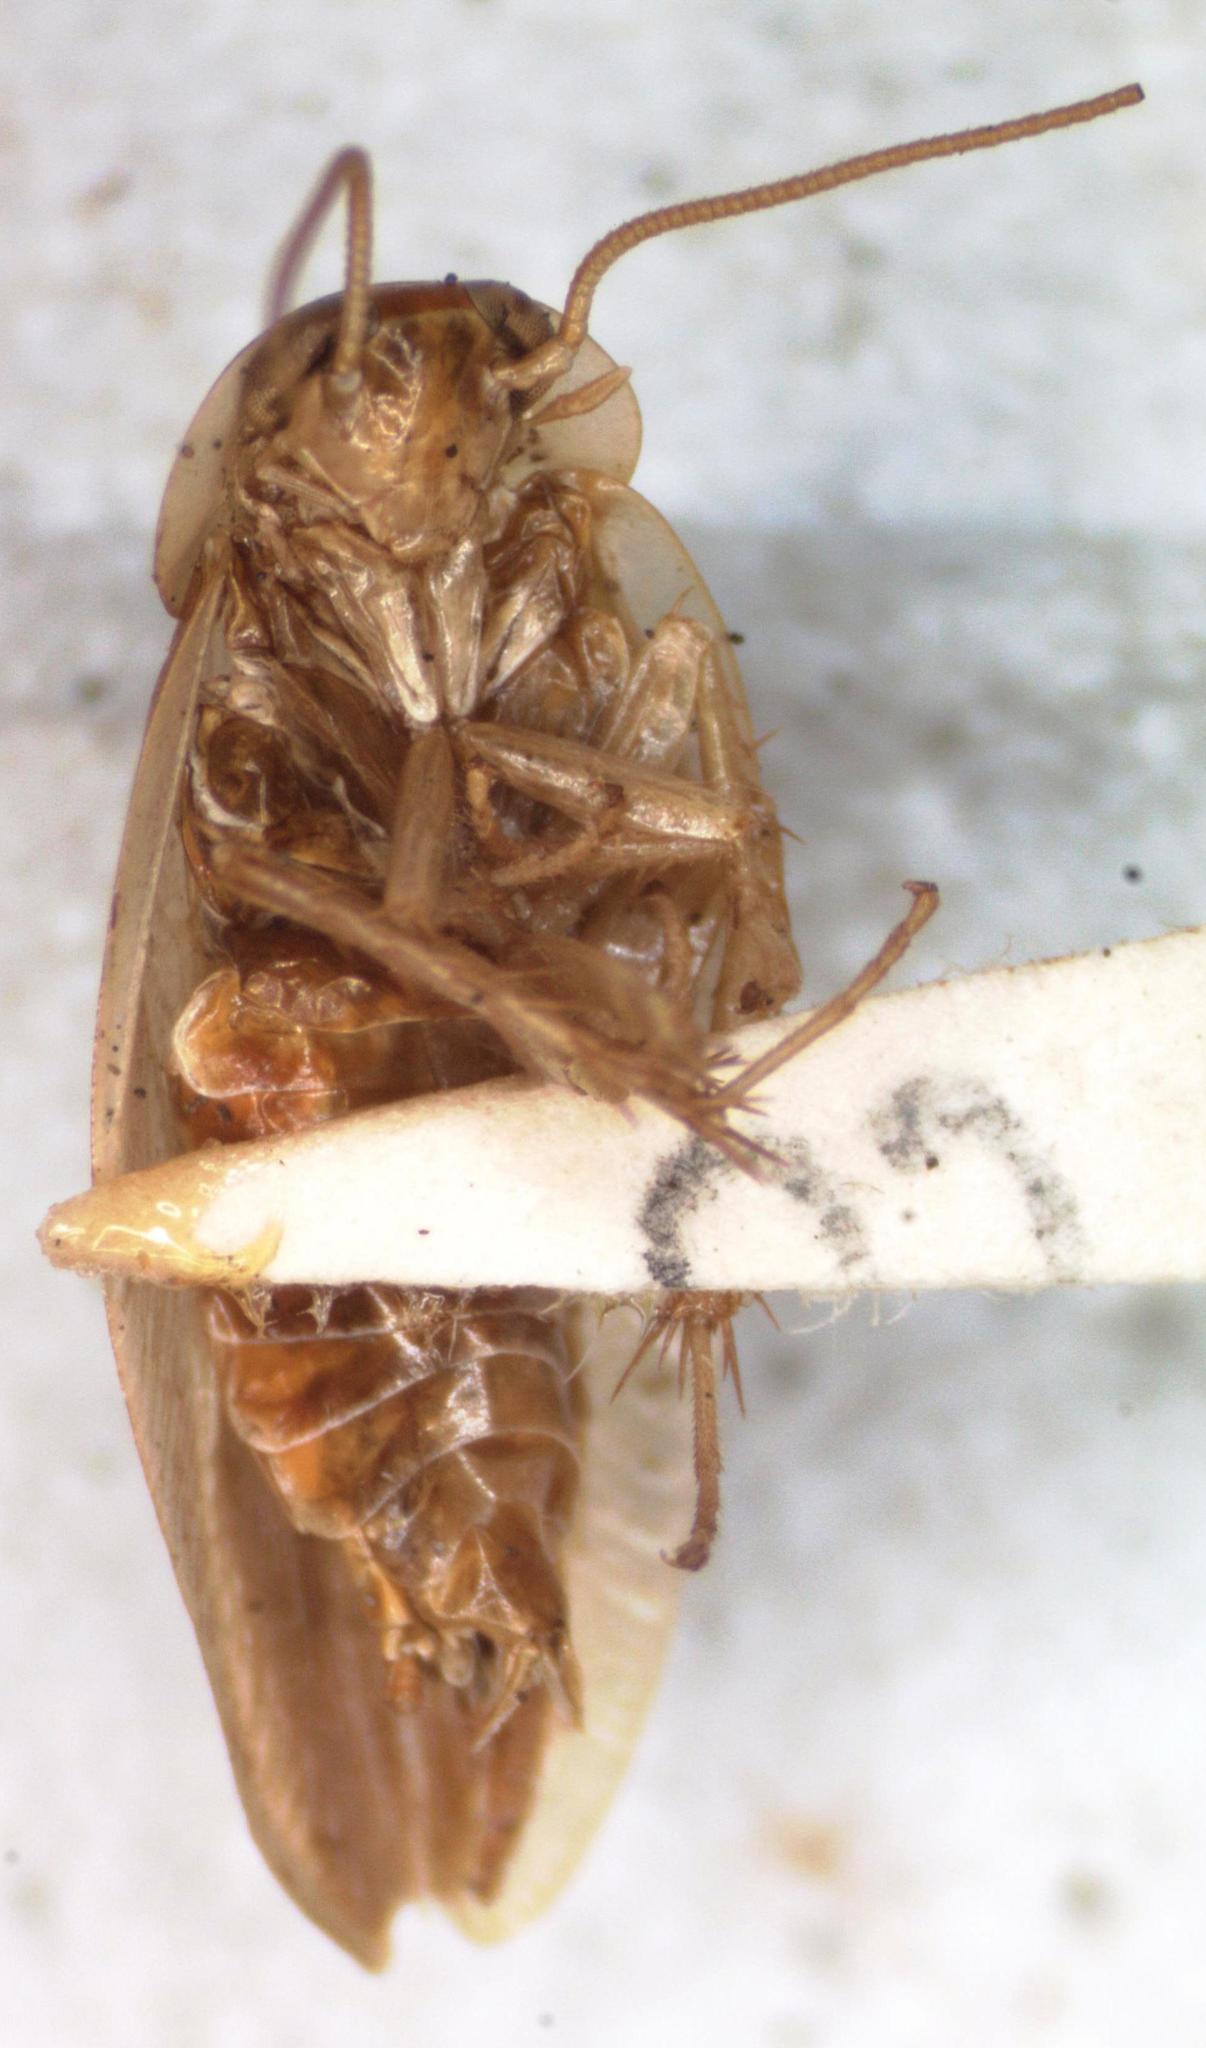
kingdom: Animalia
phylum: Arthropoda
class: Insecta
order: Blattodea
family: Ectobiidae
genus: Chorisoneura
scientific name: Chorisoneura translucida
